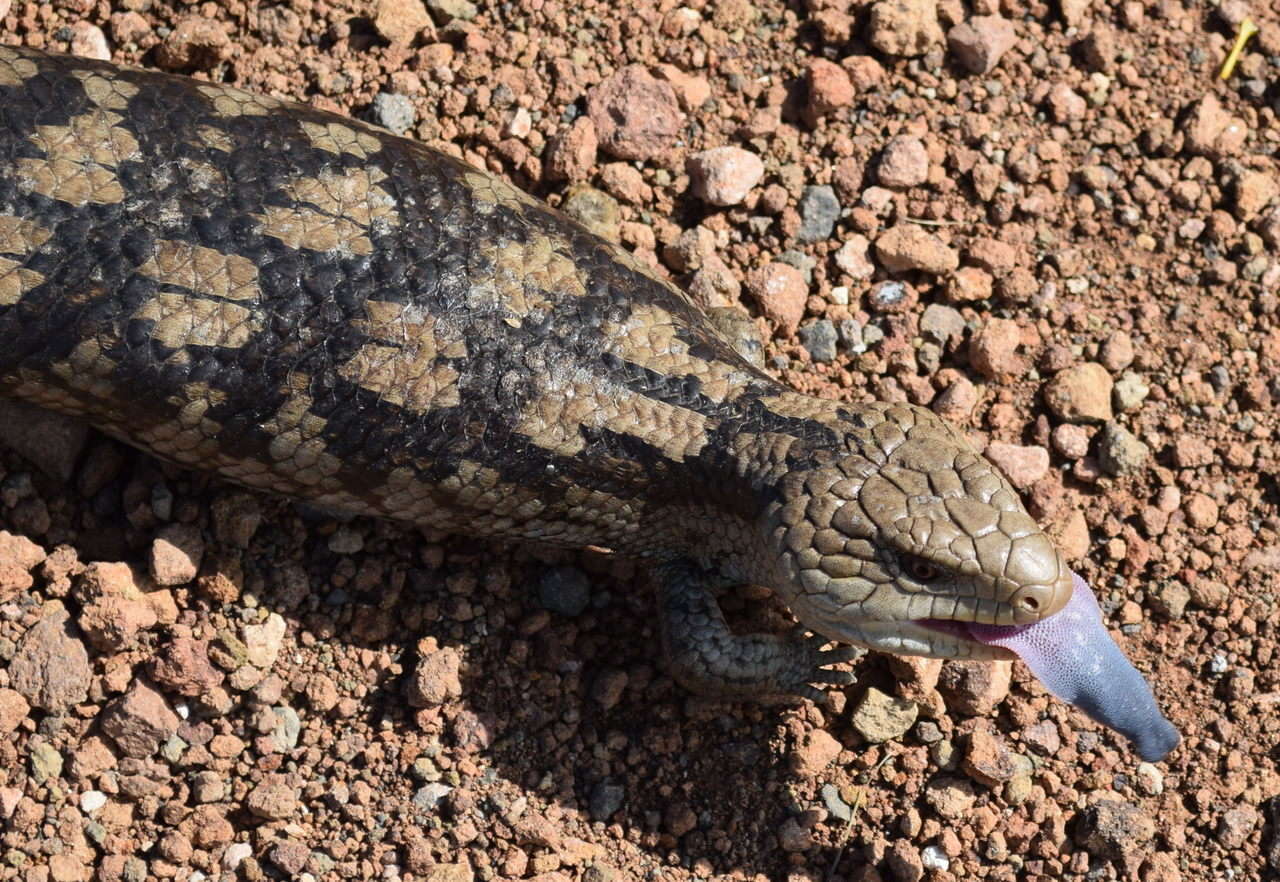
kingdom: Animalia
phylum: Chordata
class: Squamata
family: Scincidae
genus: Tiliqua
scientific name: Tiliqua nigrolutea
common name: Blotched blue-tongued lizard
